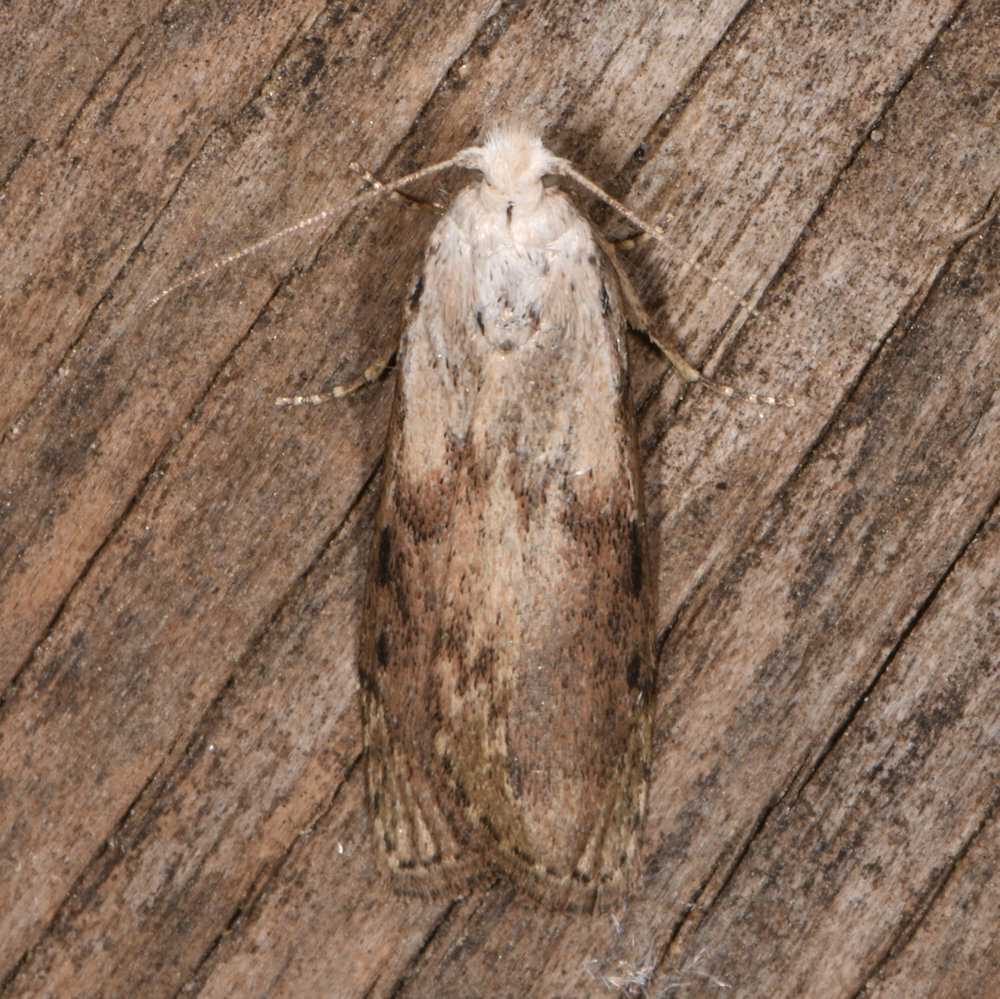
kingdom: Animalia
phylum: Arthropoda
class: Insecta
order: Lepidoptera
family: Pyralidae
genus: Aphomia
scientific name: Aphomia sociella
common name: Bee moth
